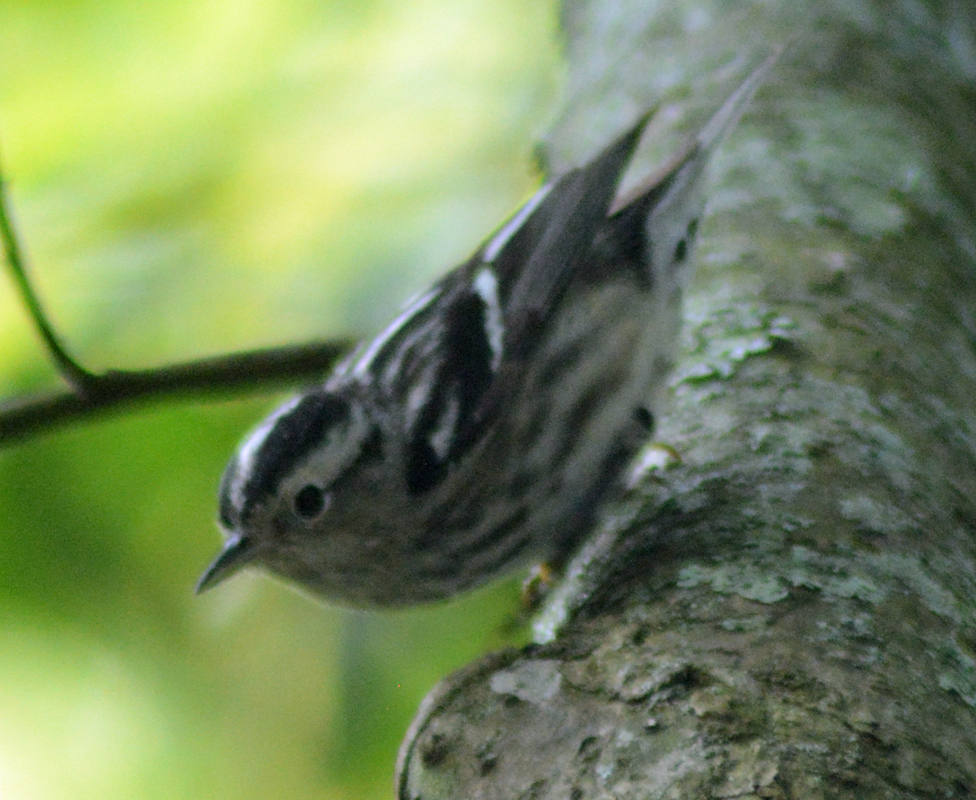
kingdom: Animalia
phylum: Chordata
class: Aves
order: Passeriformes
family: Parulidae
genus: Mniotilta
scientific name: Mniotilta varia
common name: Black-and-white warbler
